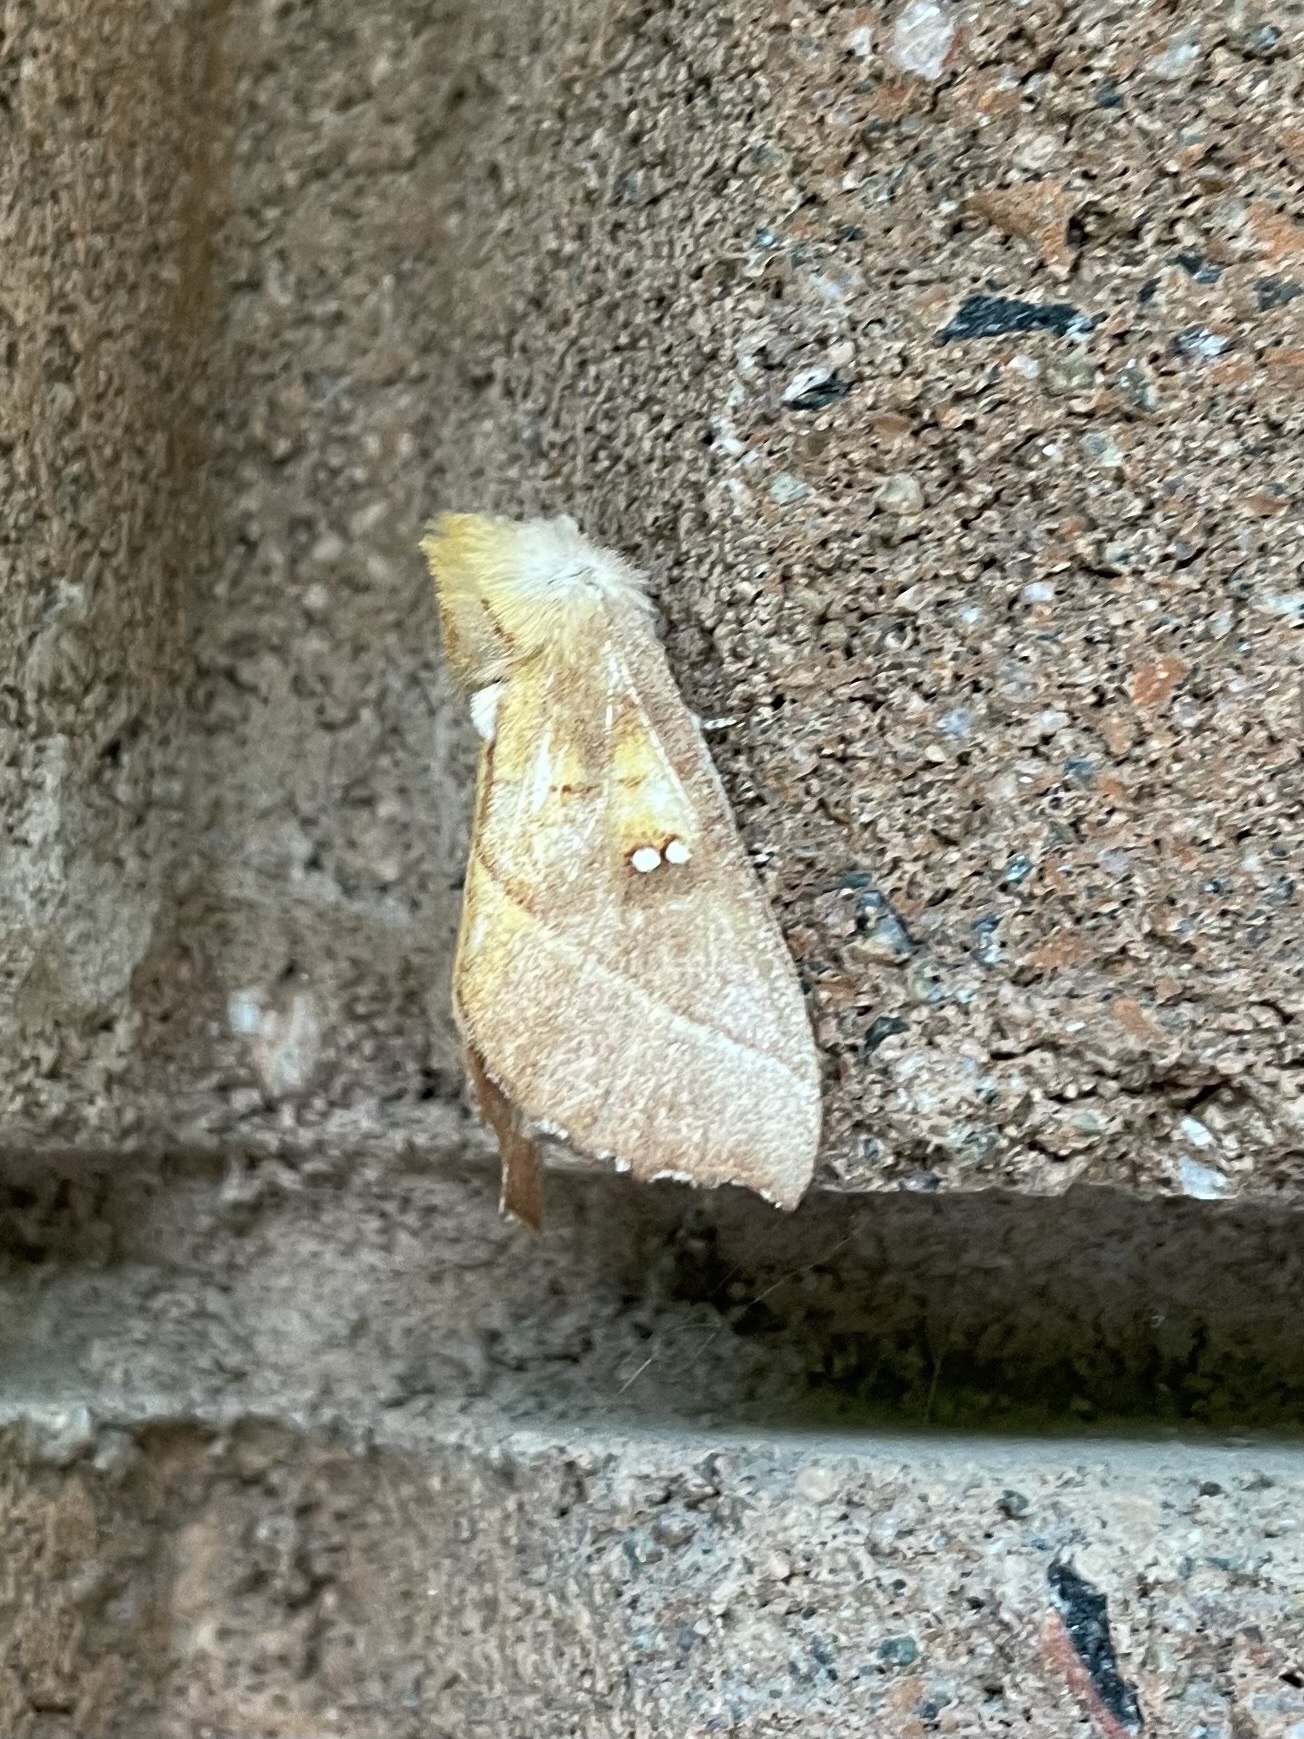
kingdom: Animalia
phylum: Arthropoda
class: Insecta
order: Lepidoptera
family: Notodontidae
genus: Nadata
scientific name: Nadata gibbosa
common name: White-dotted prominent
